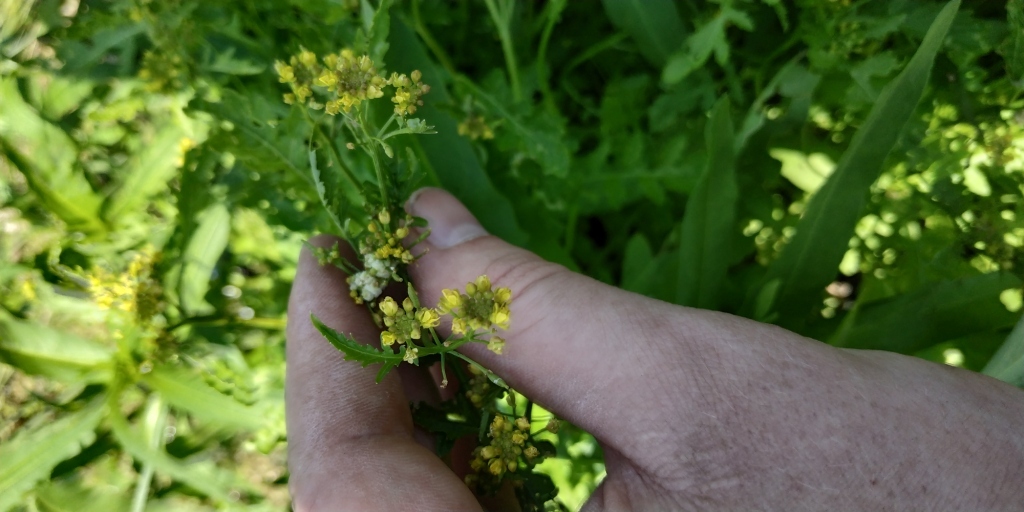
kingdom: Plantae
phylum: Tracheophyta
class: Magnoliopsida
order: Brassicales
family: Brassicaceae
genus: Rorippa
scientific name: Rorippa palustris
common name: Marsh yellow-cress
